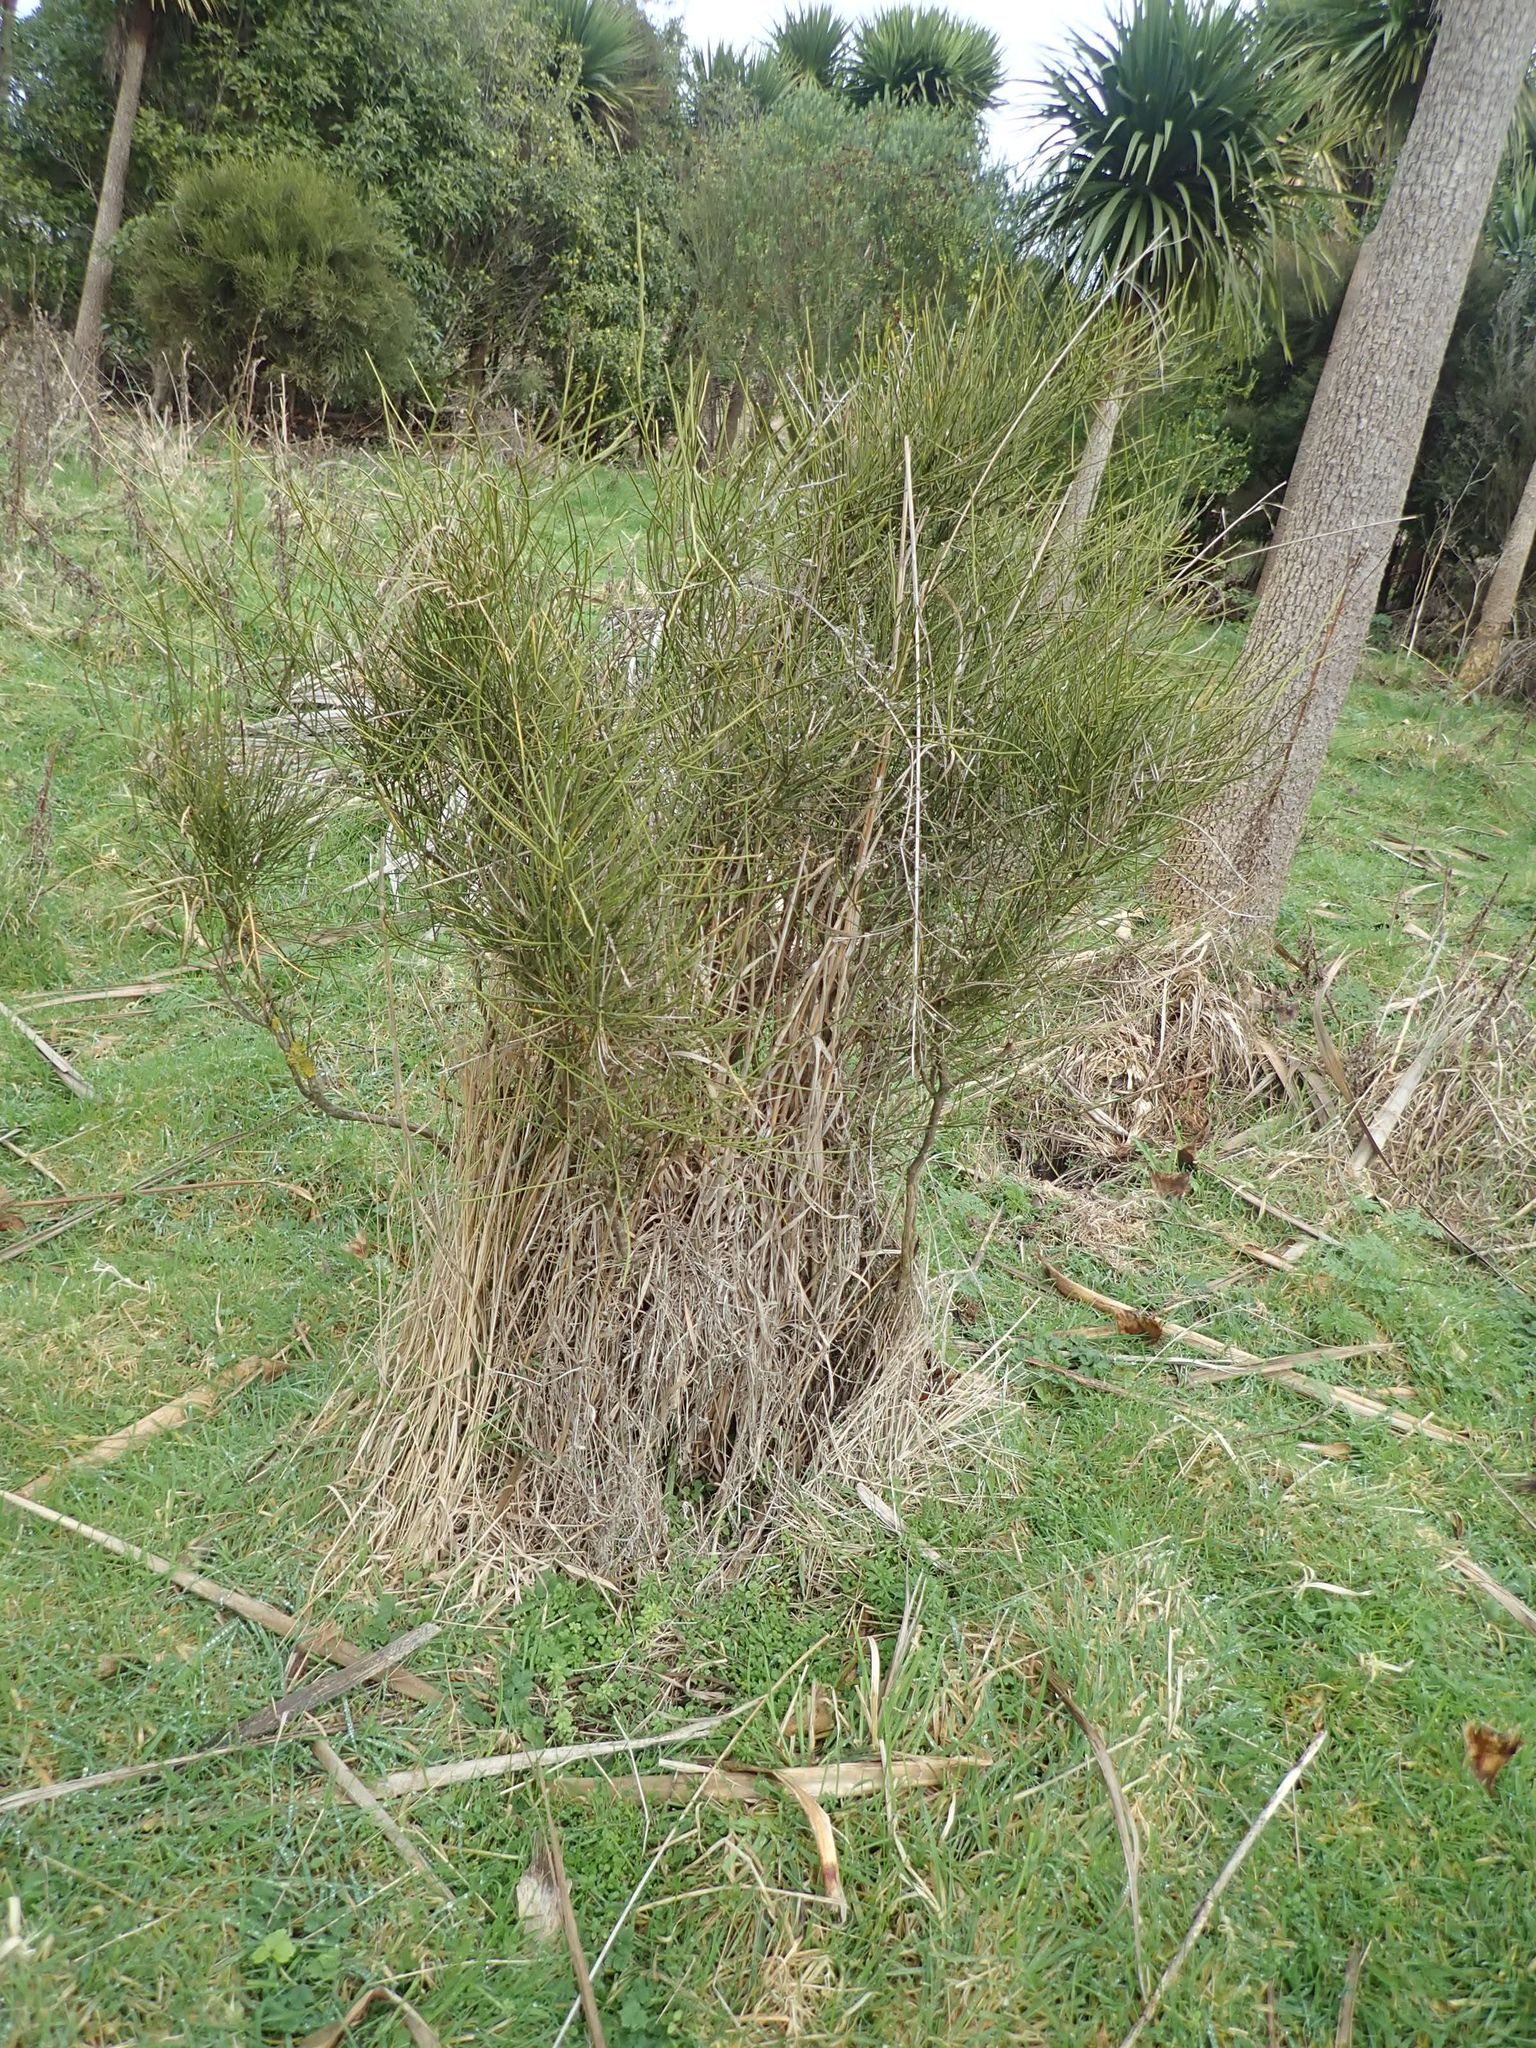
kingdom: Plantae
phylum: Tracheophyta
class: Magnoliopsida
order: Fabales
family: Fabaceae
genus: Carmichaelia
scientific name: Carmichaelia petriei
